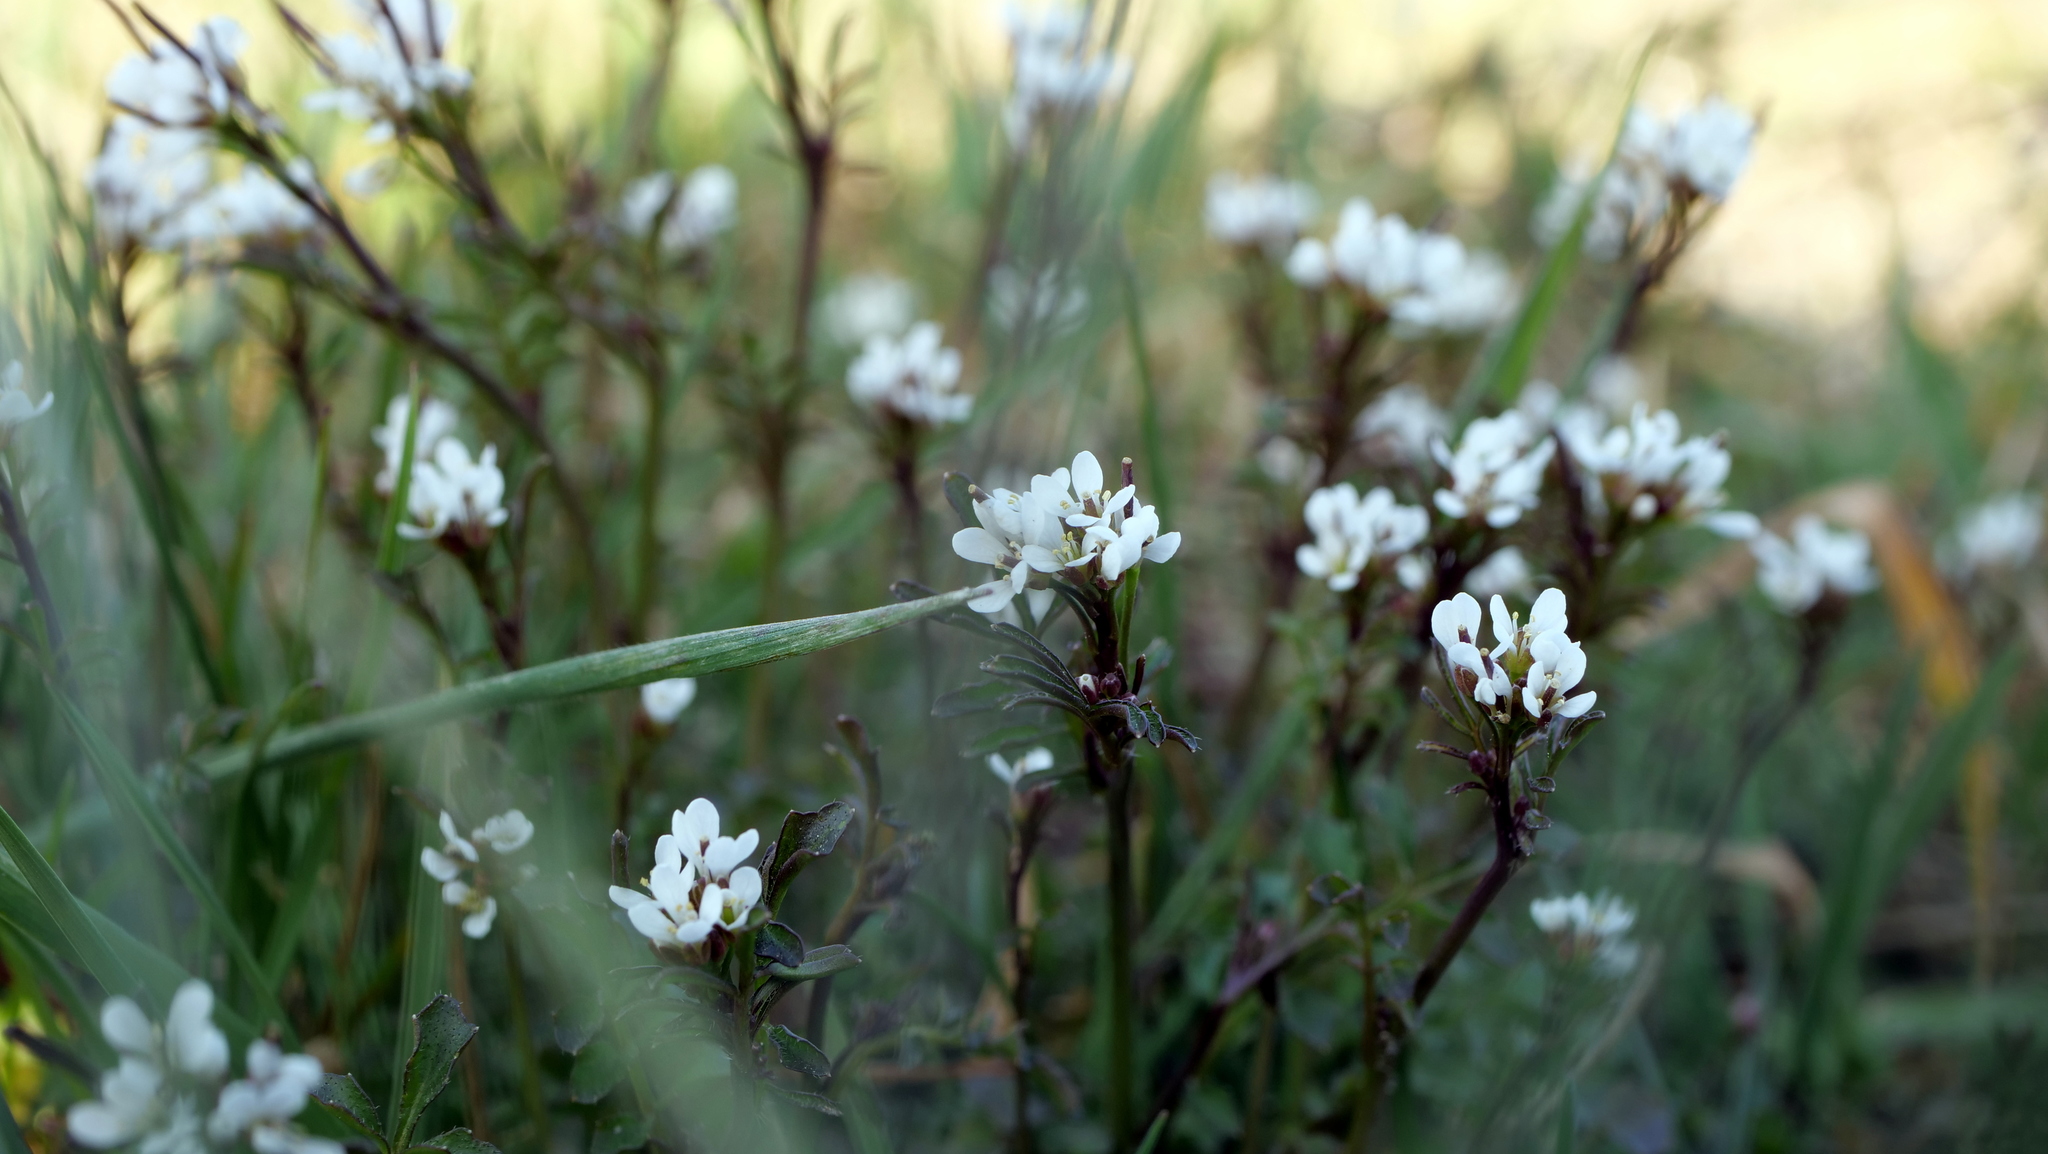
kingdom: Plantae
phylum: Tracheophyta
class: Magnoliopsida
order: Brassicales
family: Brassicaceae
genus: Cardamine
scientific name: Cardamine hirsuta
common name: Hairy bittercress
